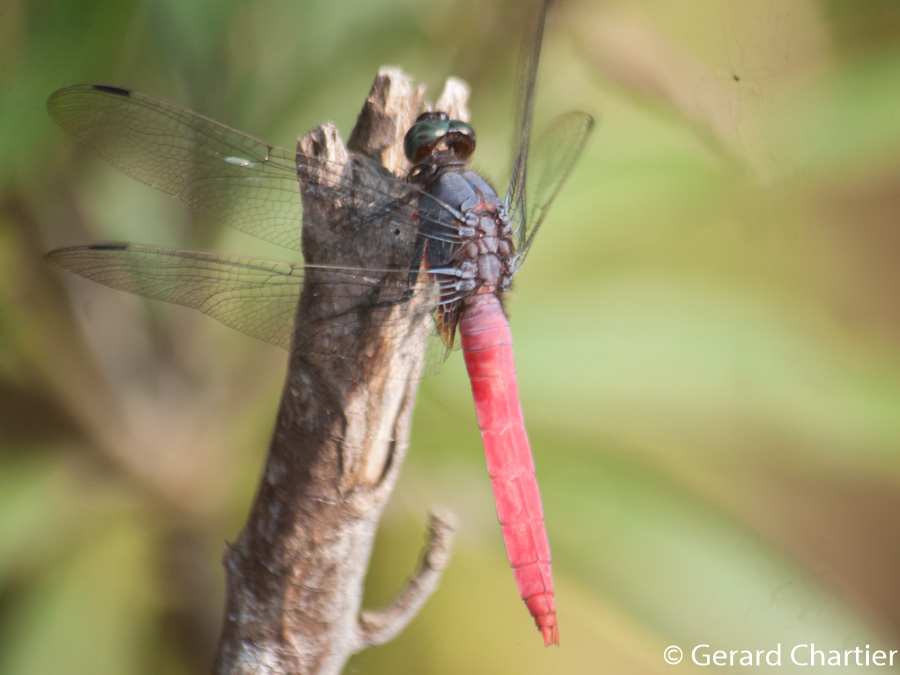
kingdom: Animalia
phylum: Arthropoda
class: Insecta
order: Odonata
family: Libellulidae
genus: Orthetrum
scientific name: Orthetrum pruinosum
